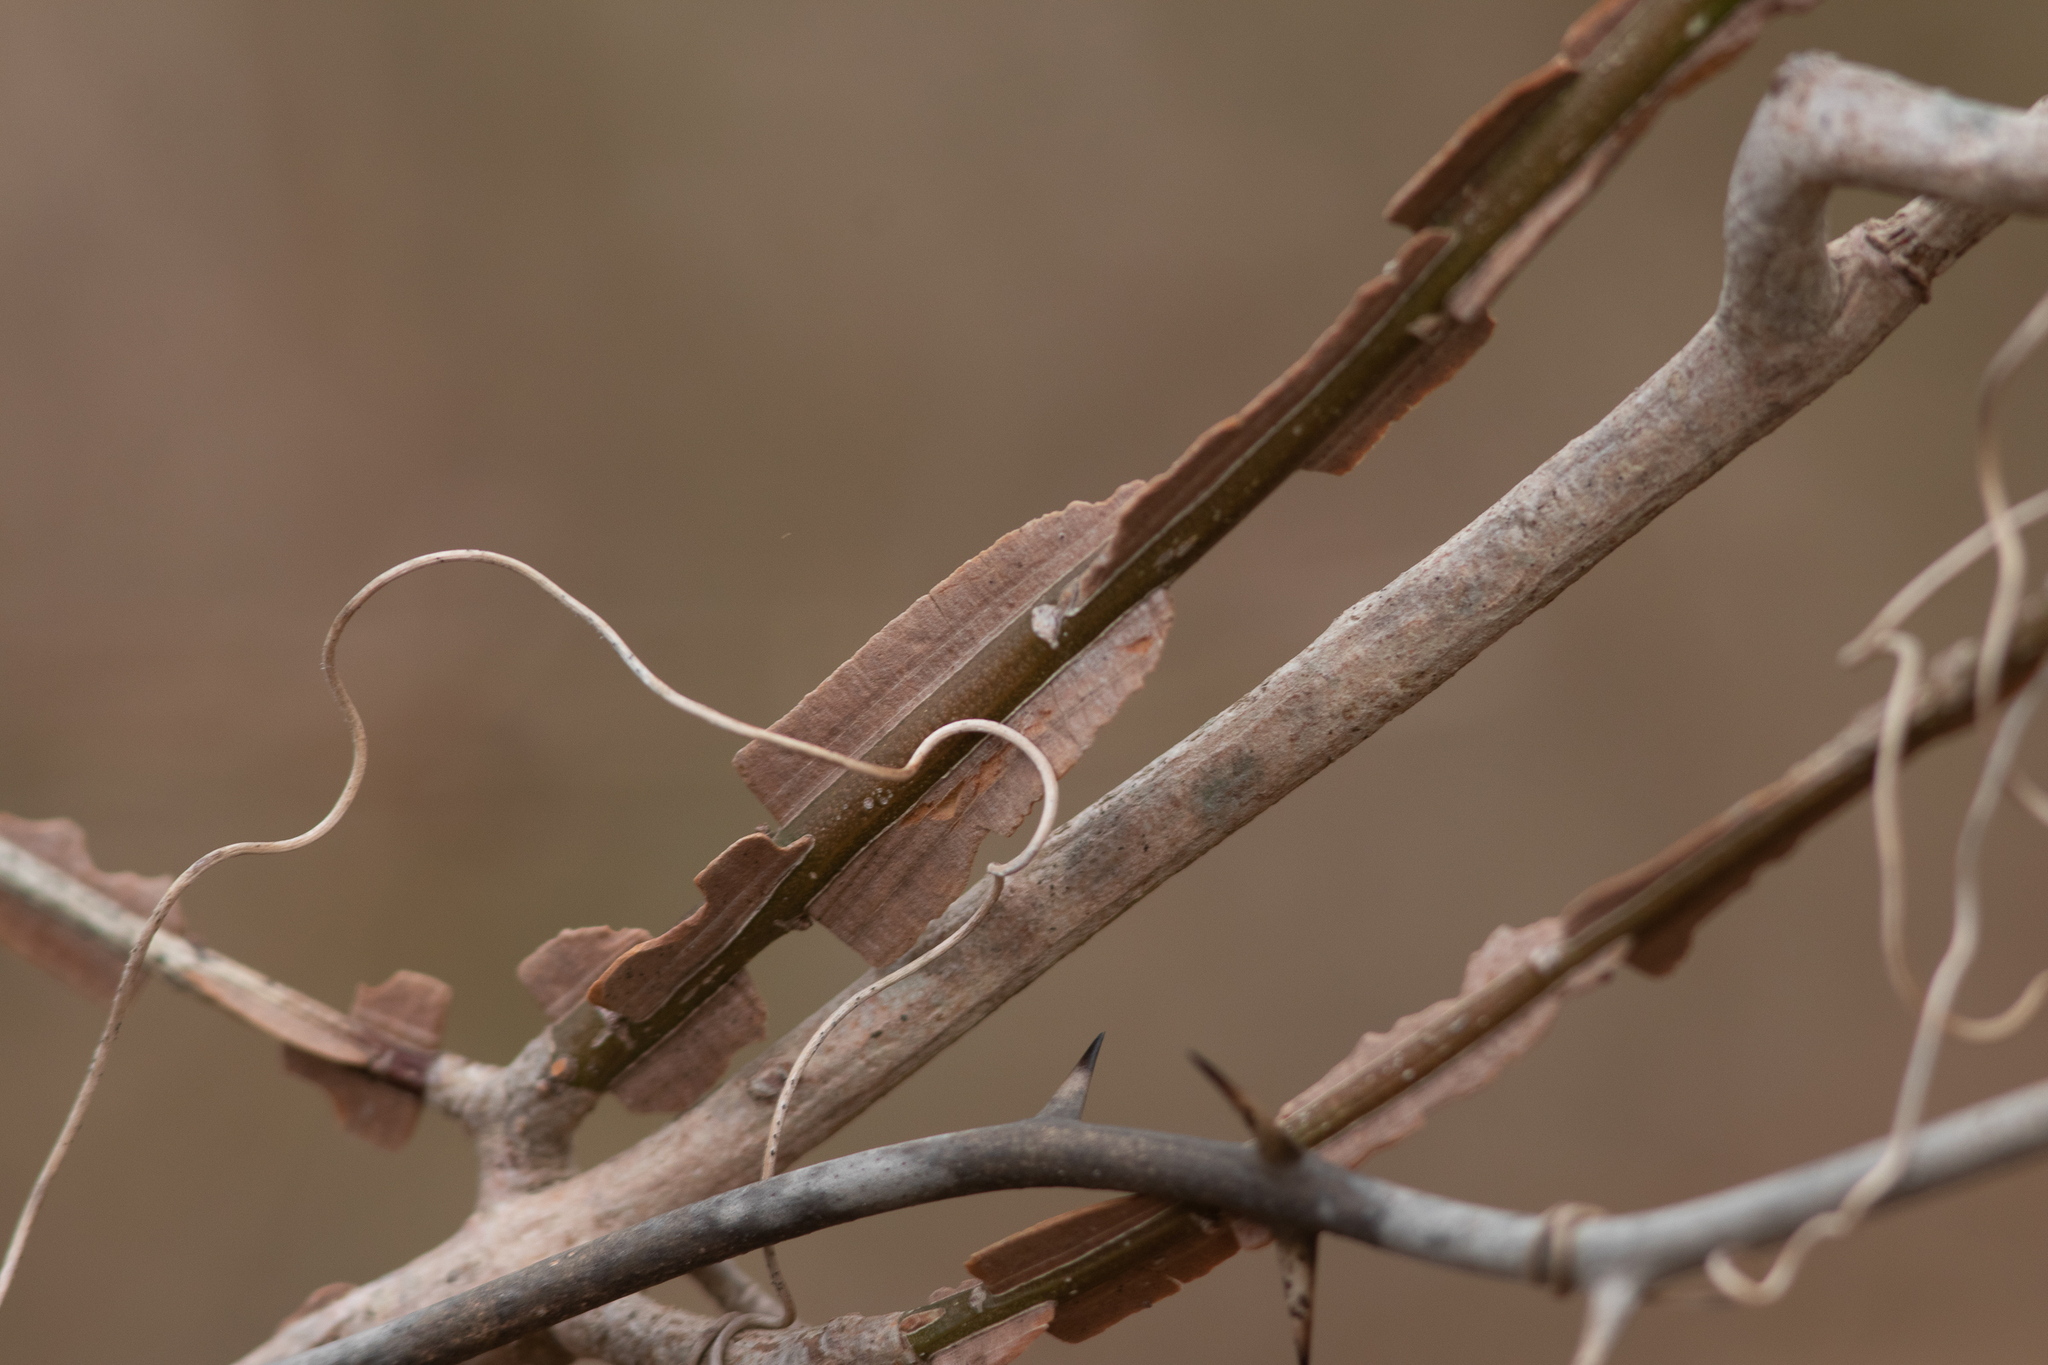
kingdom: Plantae
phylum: Tracheophyta
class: Magnoliopsida
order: Celastrales
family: Celastraceae
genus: Euonymus
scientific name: Euonymus alatus
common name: Winged euonymus
